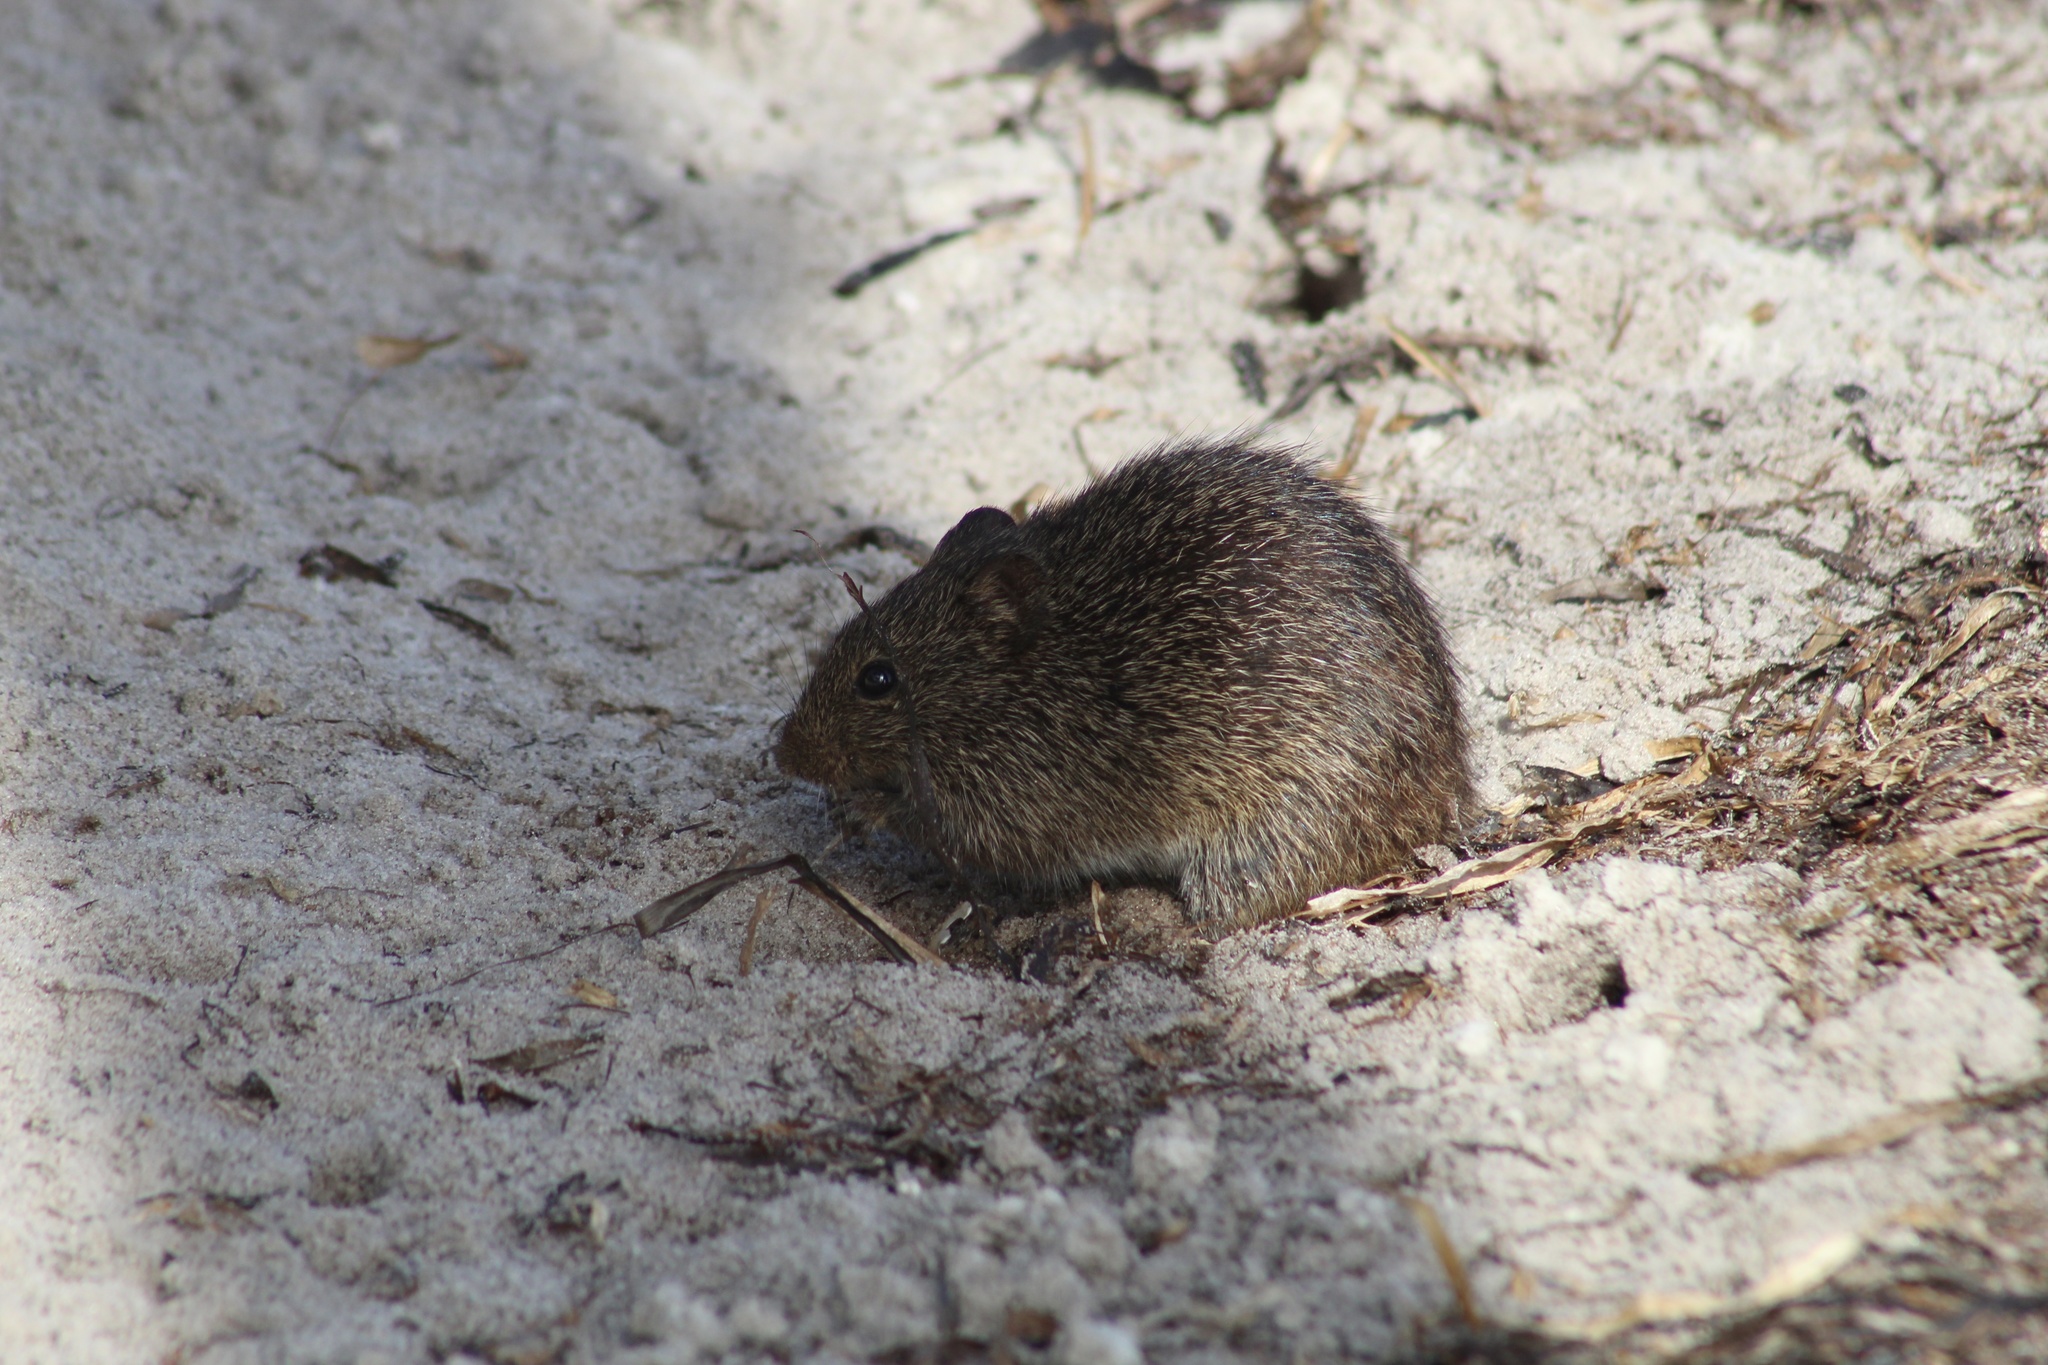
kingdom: Animalia
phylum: Chordata
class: Mammalia
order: Rodentia
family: Cricetidae
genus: Sigmodon
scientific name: Sigmodon hispidus
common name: Hispid cotton rat
